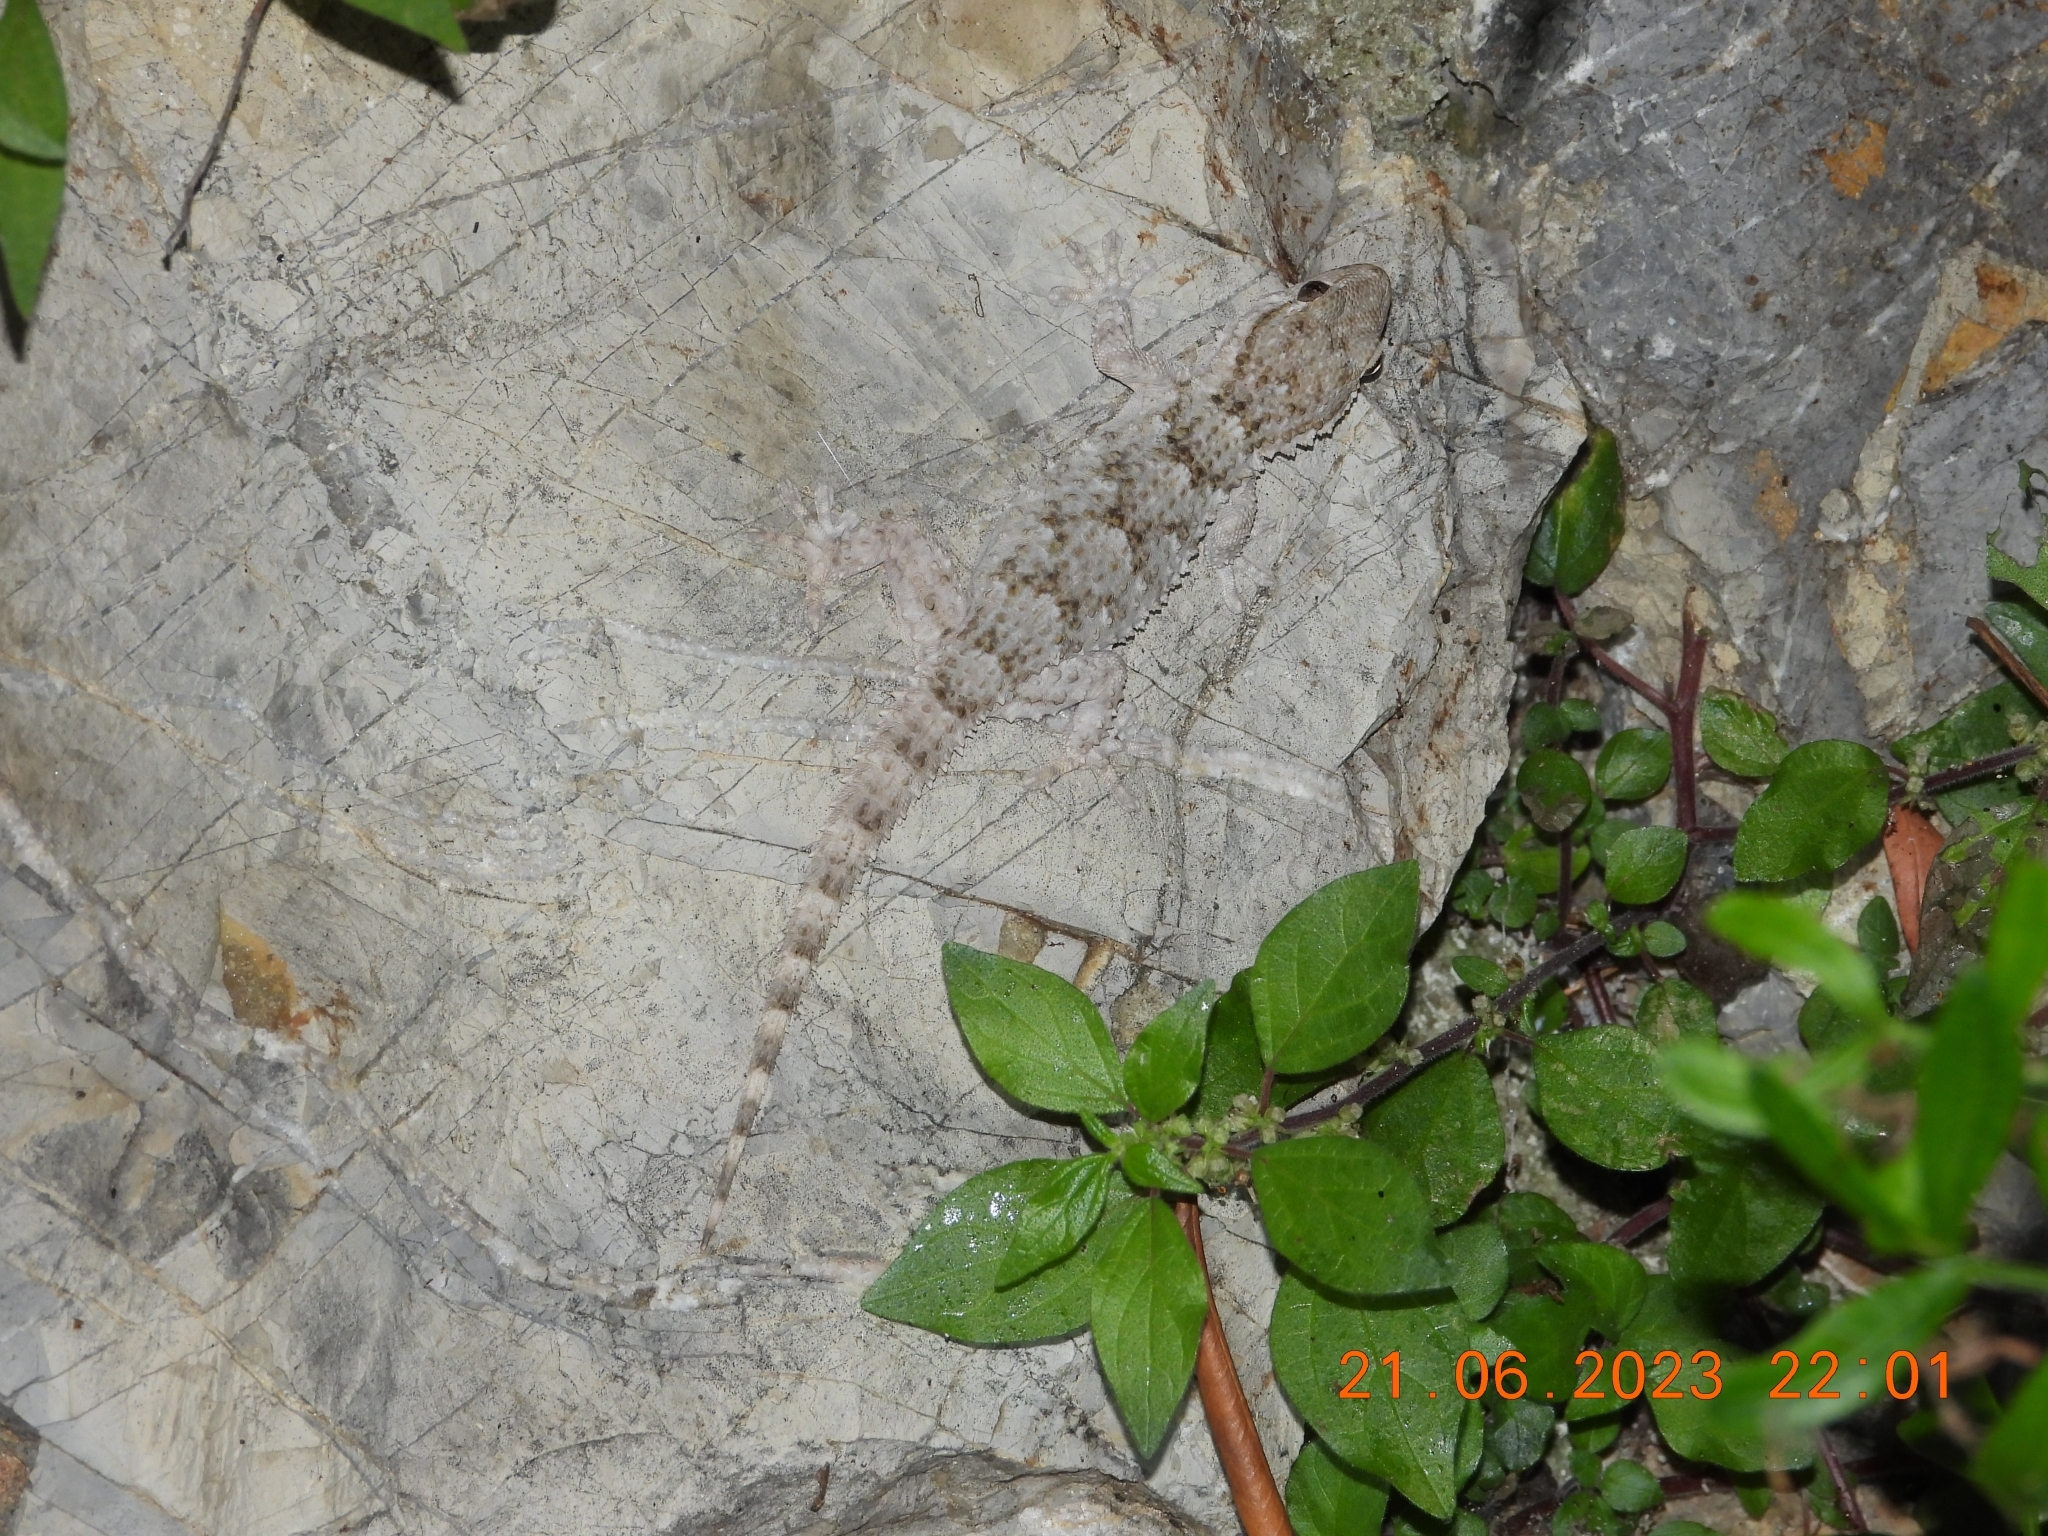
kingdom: Animalia
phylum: Chordata
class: Squamata
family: Phyllodactylidae
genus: Tarentola
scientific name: Tarentola mauritanica
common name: Moorish gecko
